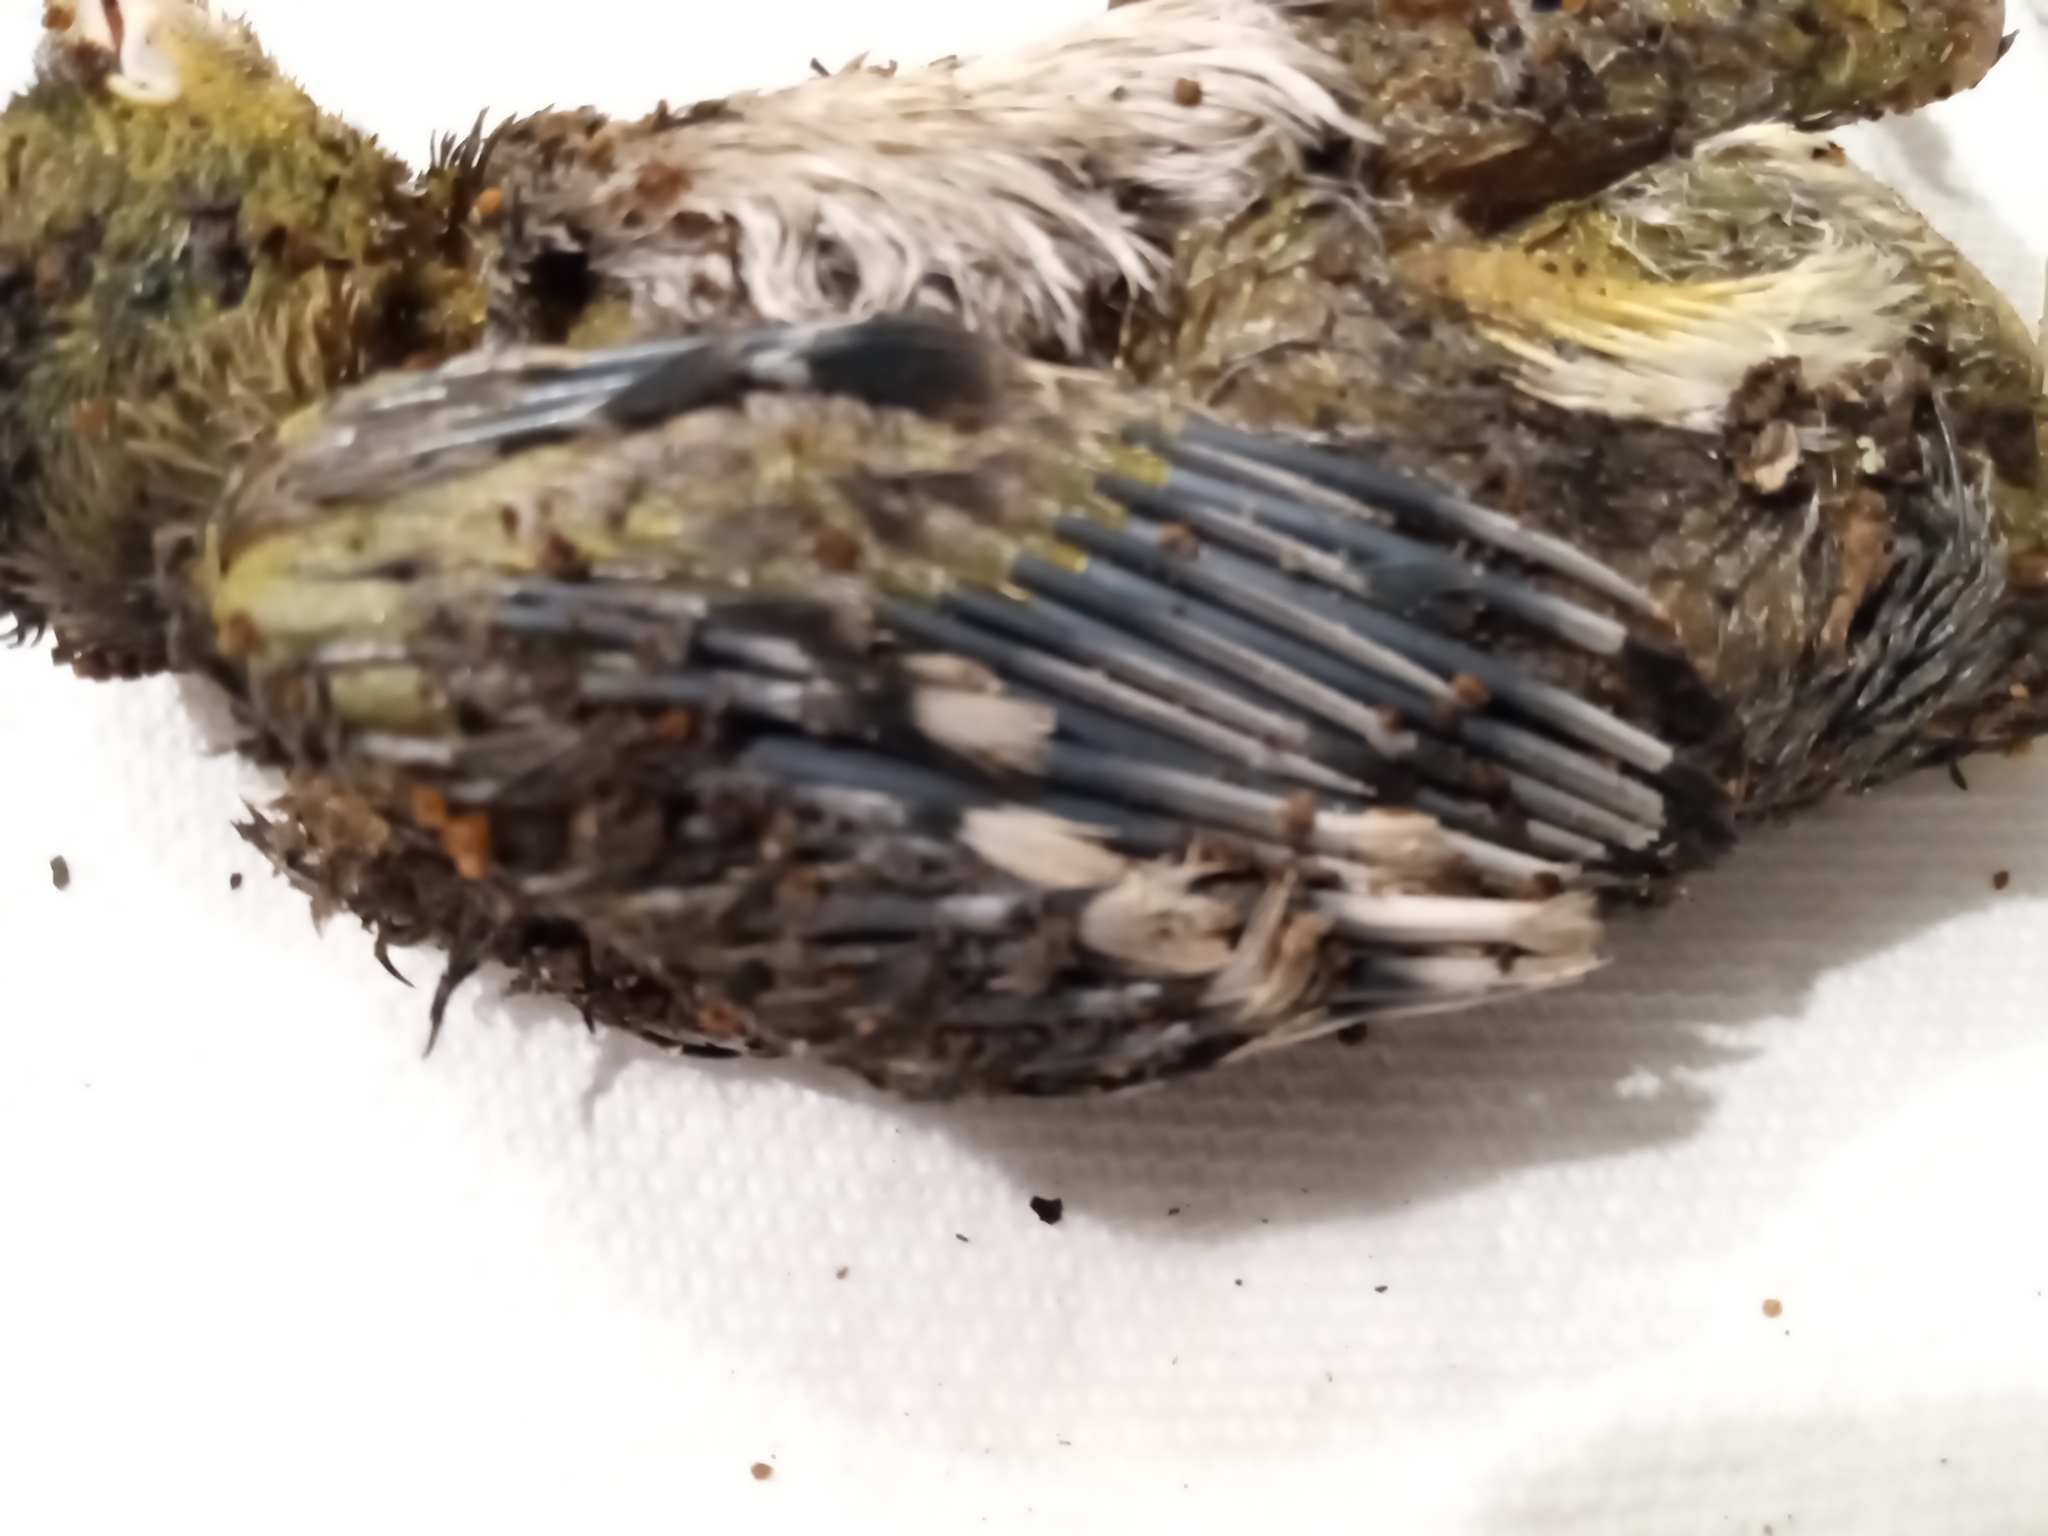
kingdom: Animalia
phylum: Chordata
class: Aves
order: Passeriformes
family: Corvidae
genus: Cyanocitta
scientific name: Cyanocitta cristata
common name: Blue jay
